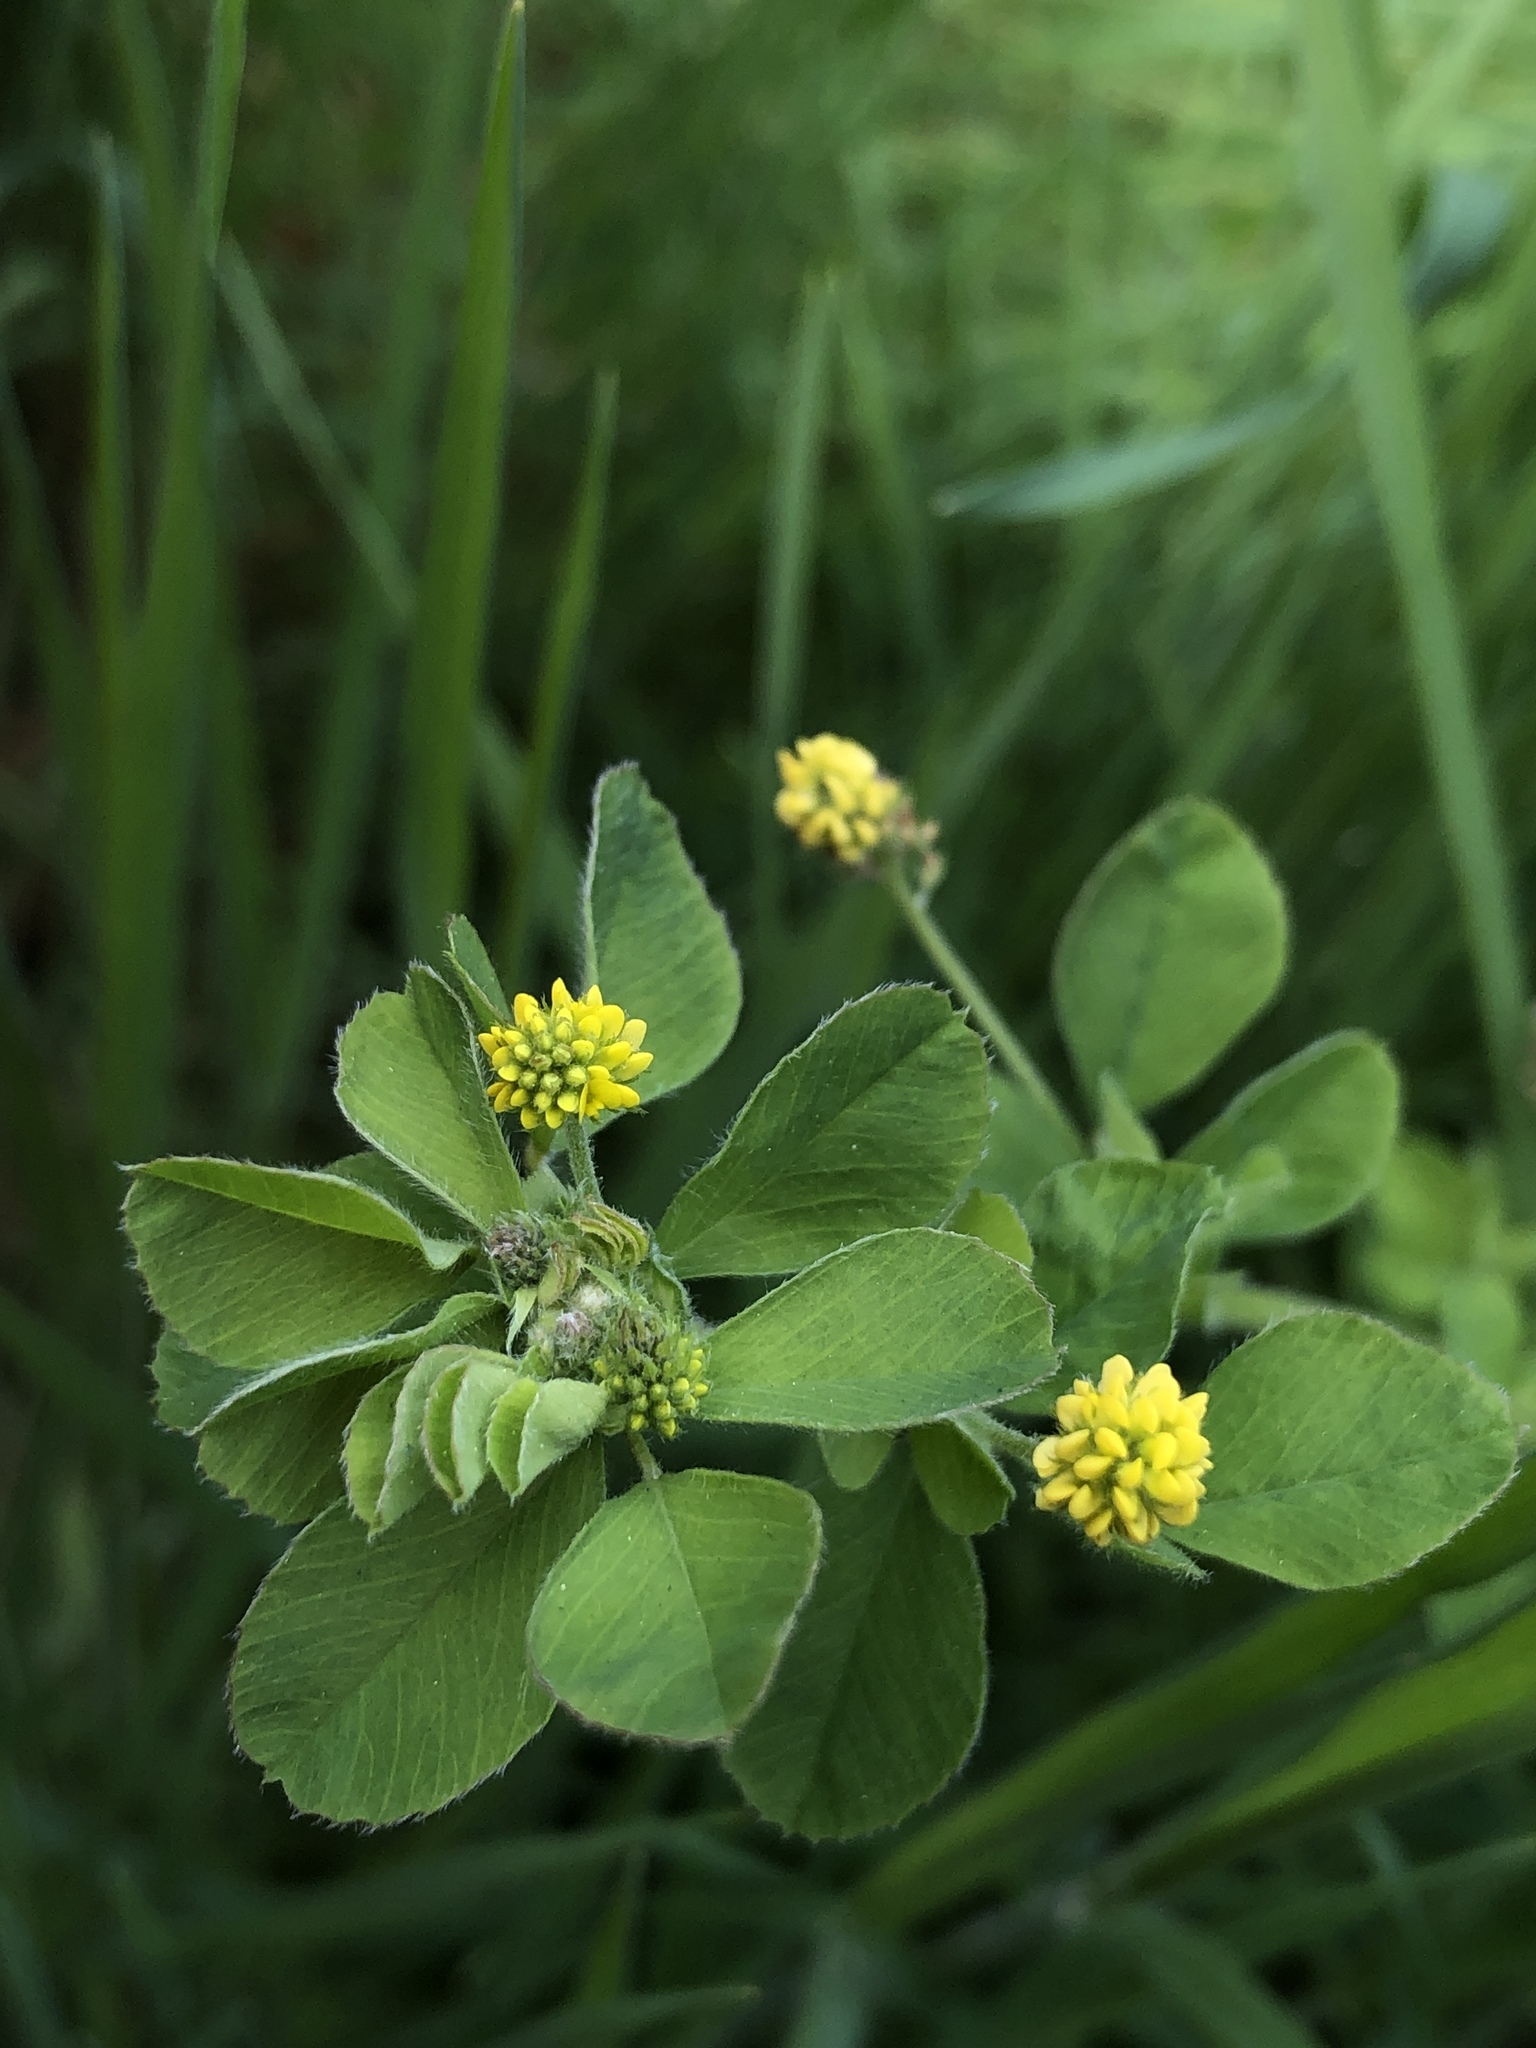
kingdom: Plantae
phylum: Tracheophyta
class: Magnoliopsida
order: Fabales
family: Fabaceae
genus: Medicago
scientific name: Medicago lupulina
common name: Black medick
